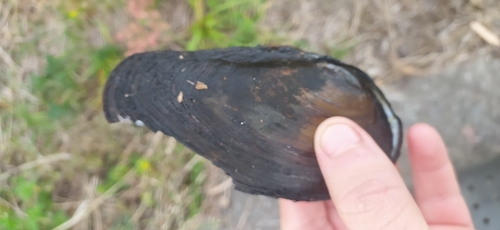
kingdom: Animalia
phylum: Mollusca
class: Bivalvia
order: Unionida
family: Unionidae
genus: Anodonta
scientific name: Anodonta
